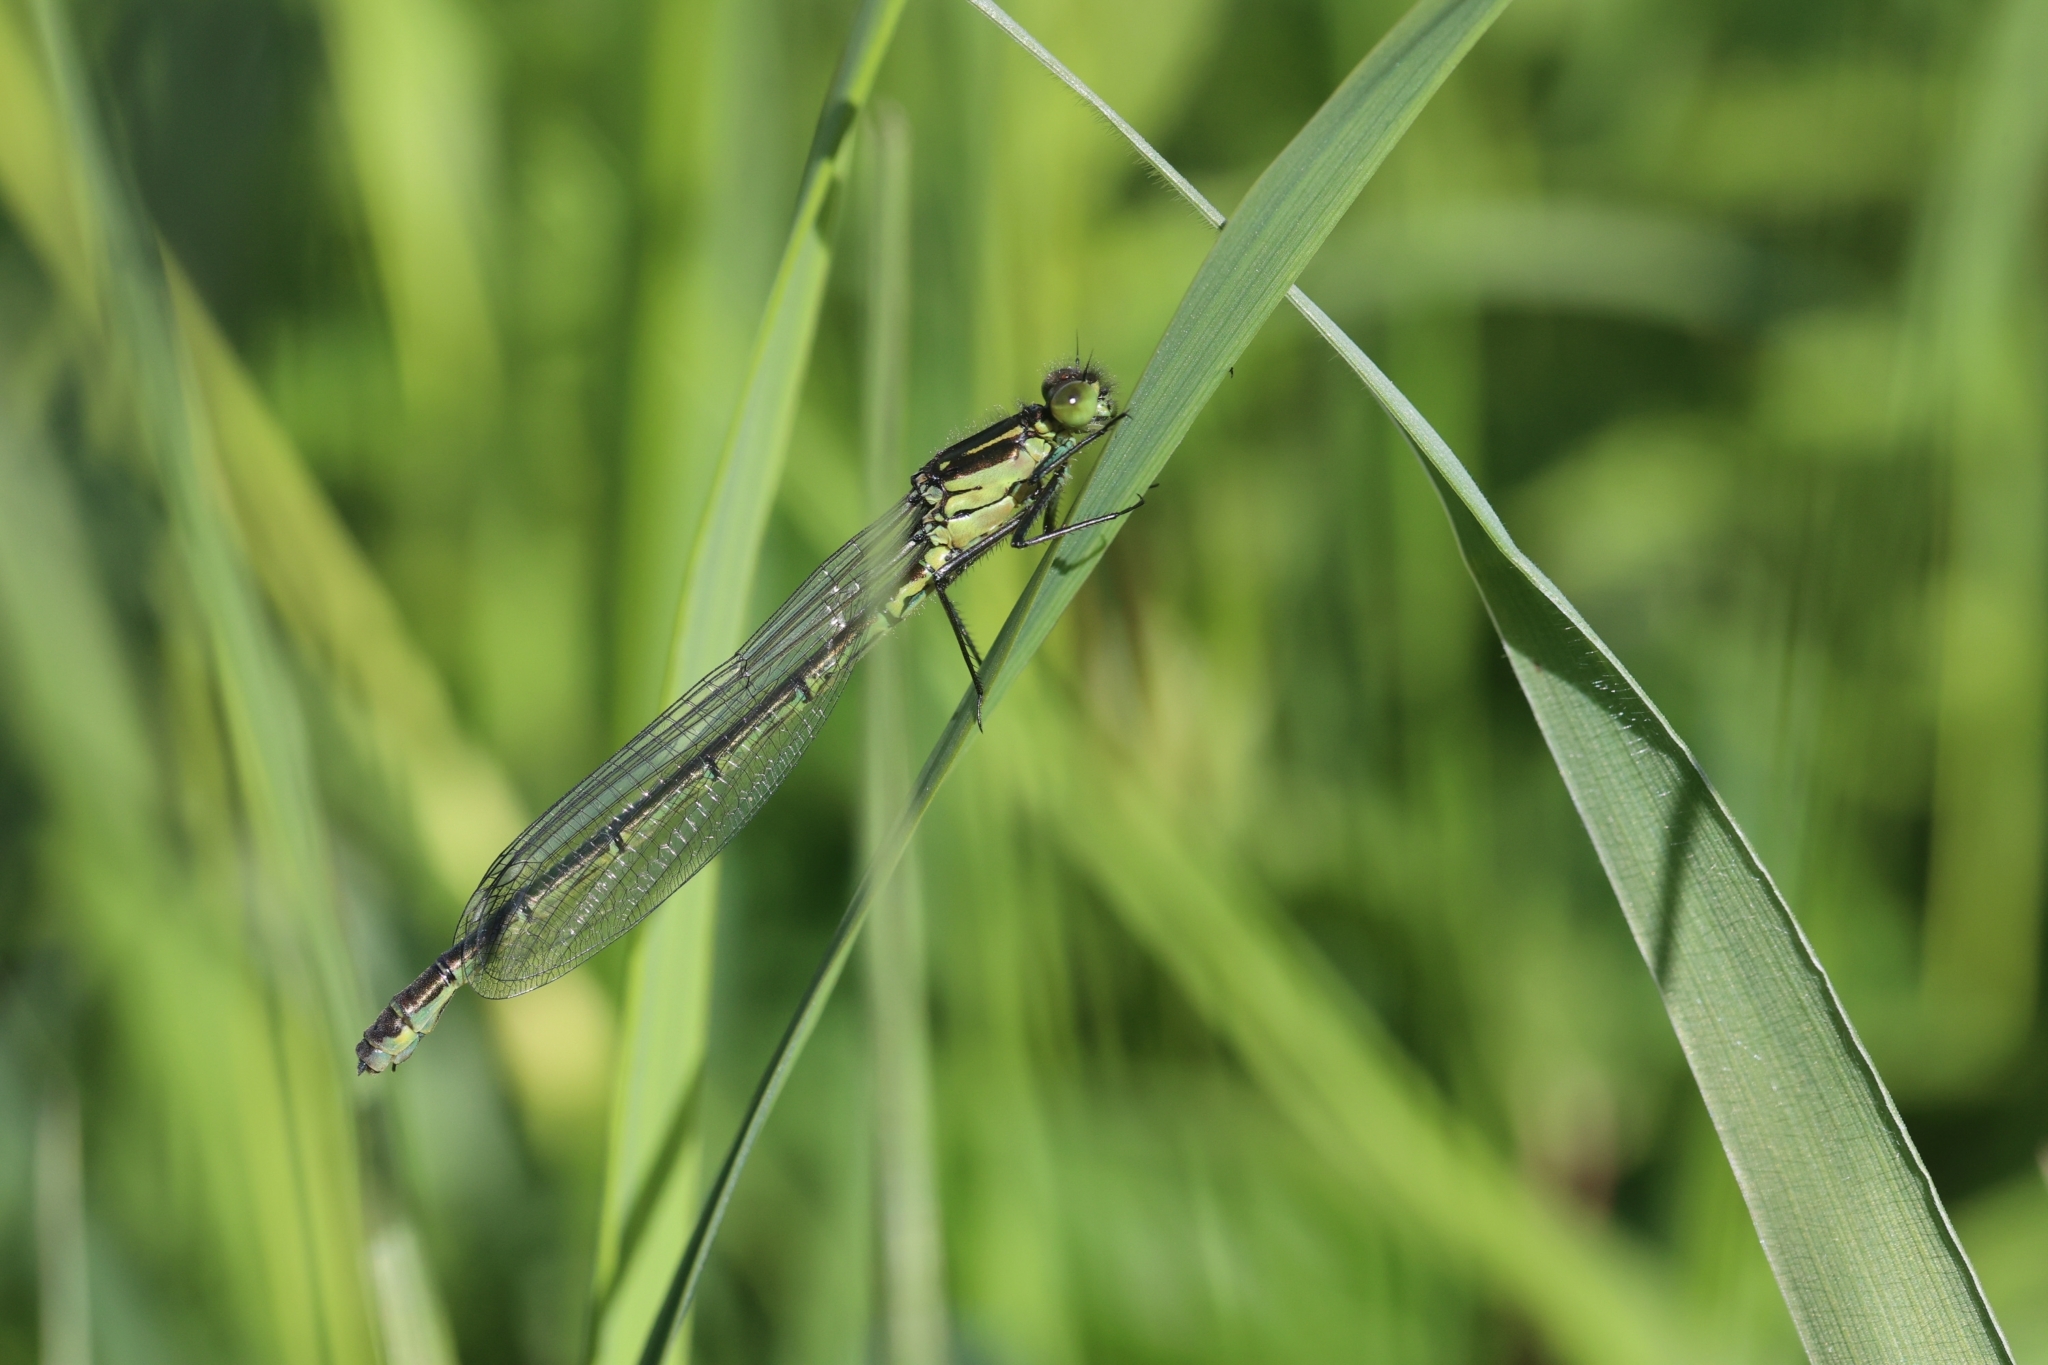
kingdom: Animalia
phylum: Arthropoda
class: Insecta
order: Odonata
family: Coenagrionidae
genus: Erythromma
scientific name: Erythromma najas
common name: Red-eyed damselfly
